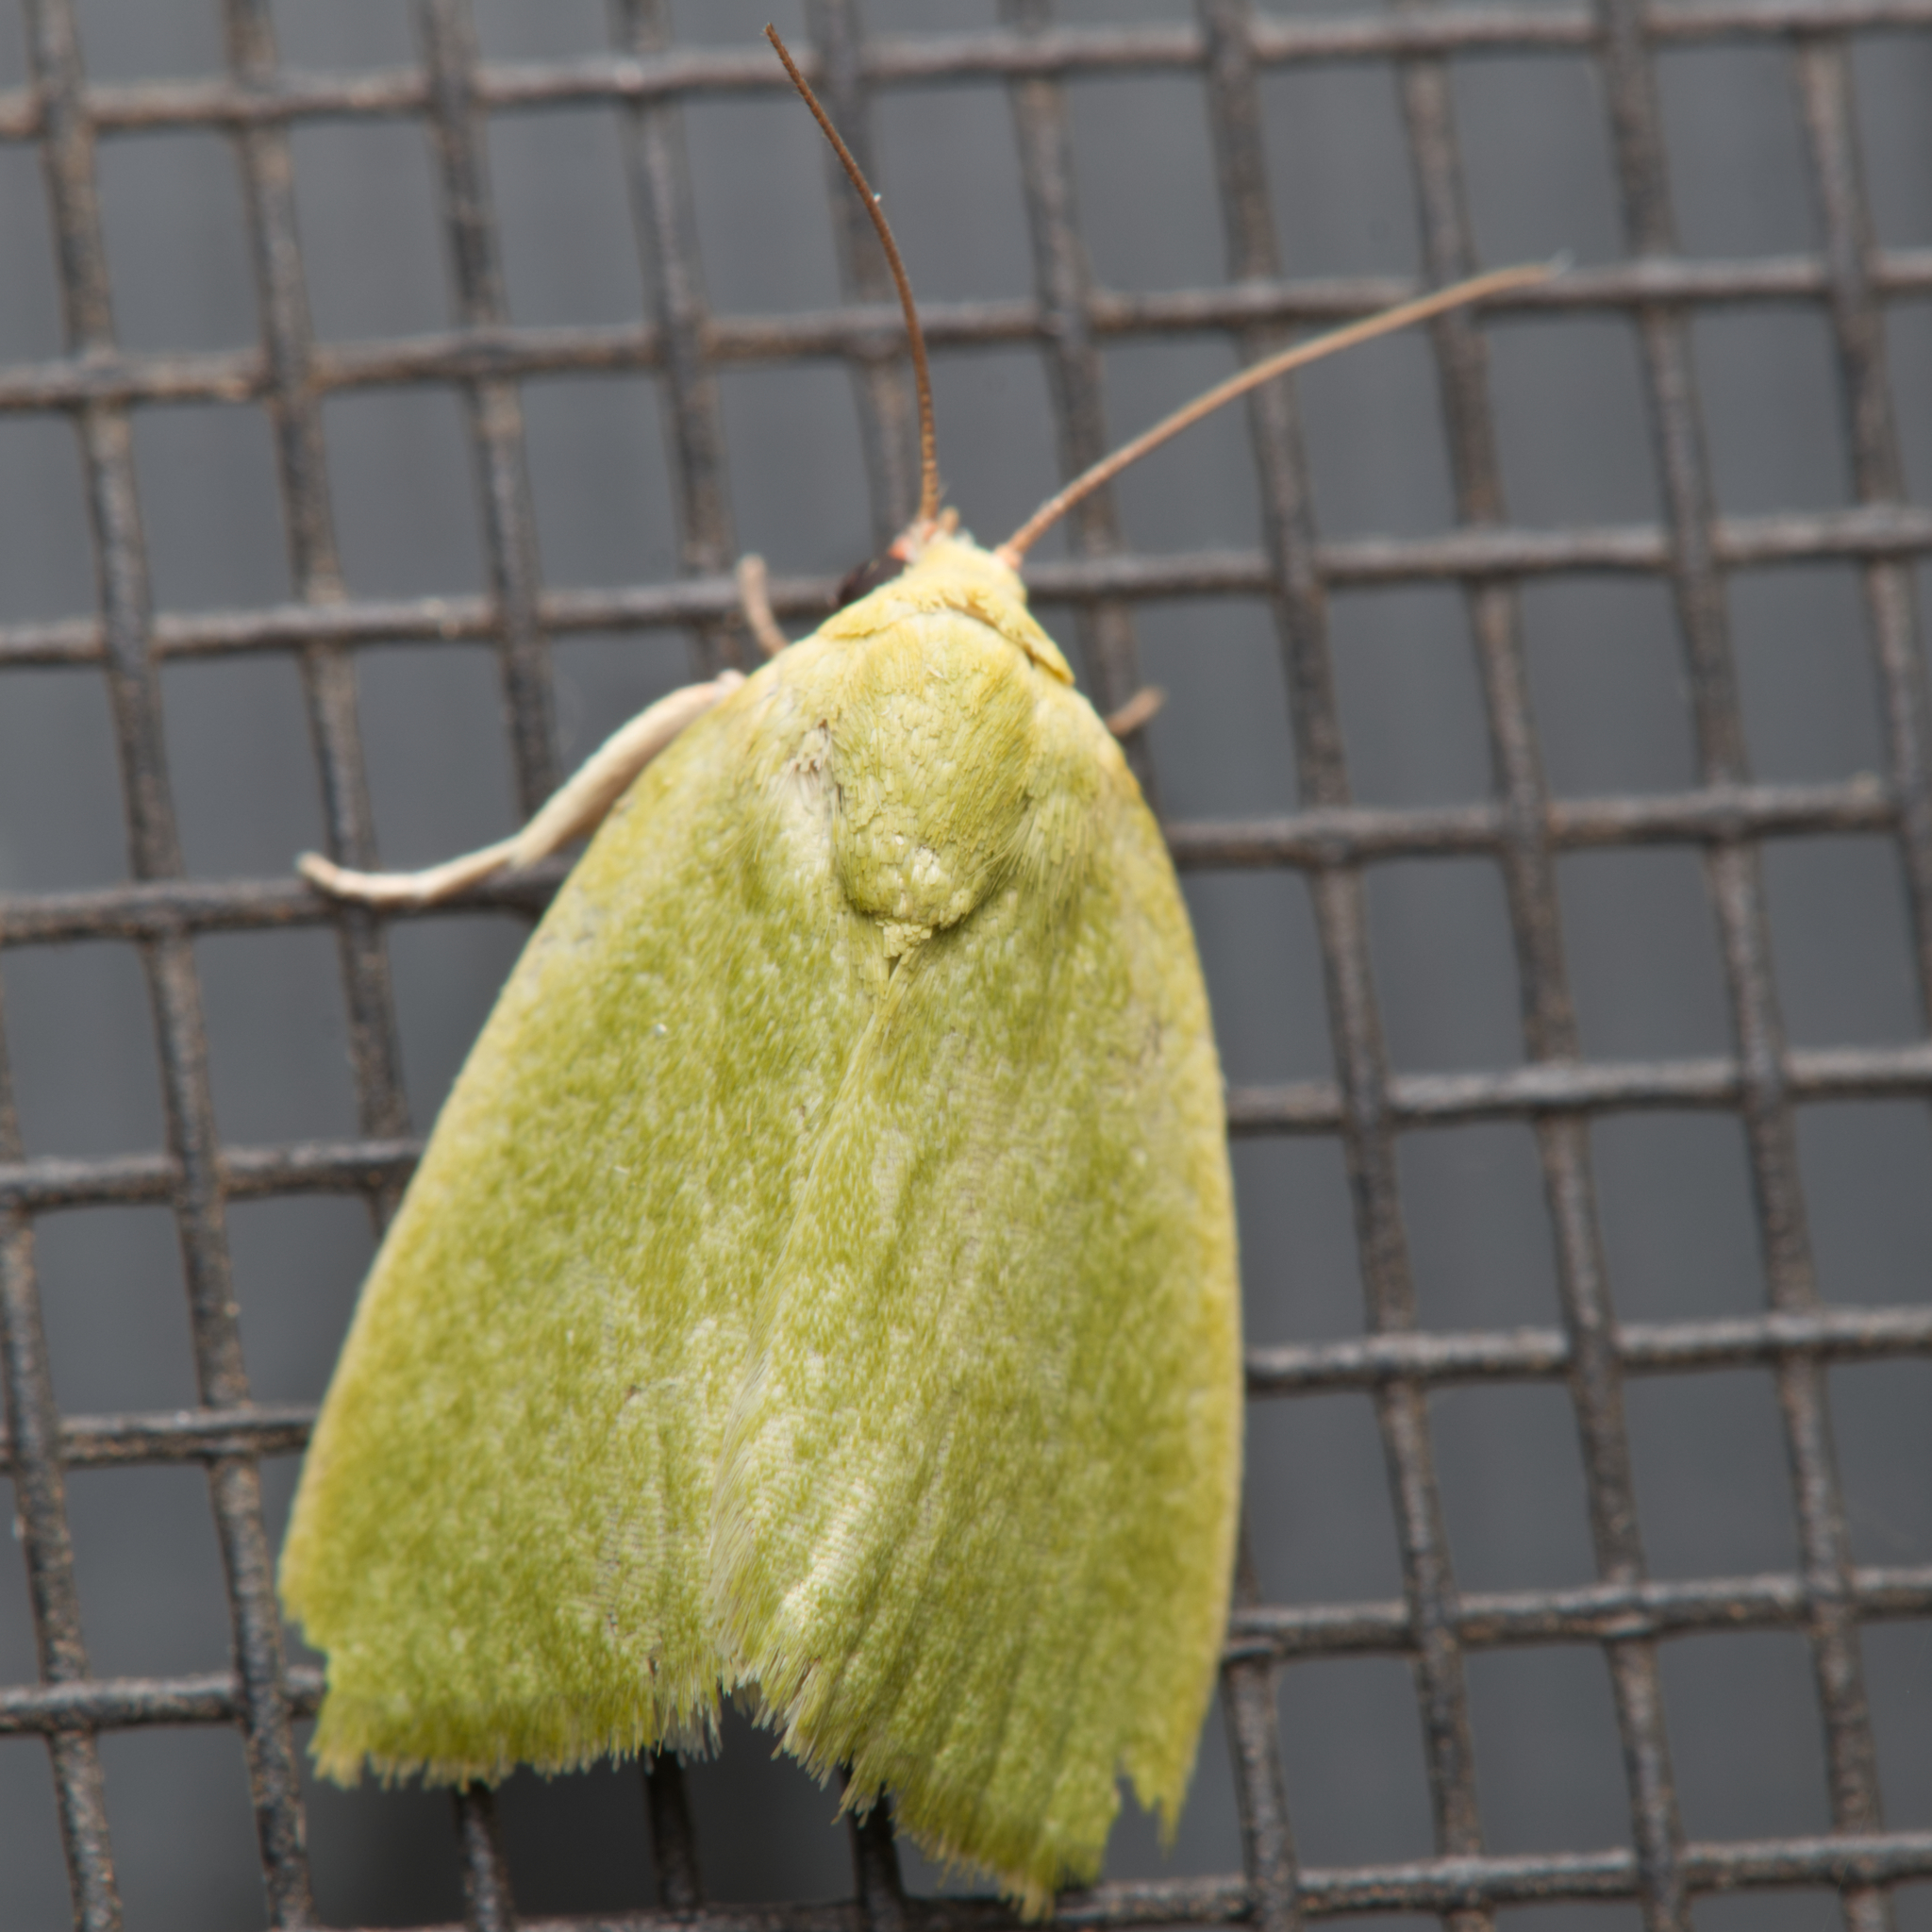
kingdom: Animalia
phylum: Arthropoda
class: Insecta
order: Lepidoptera
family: Nolidae
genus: Earias
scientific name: Earias smaragdina
